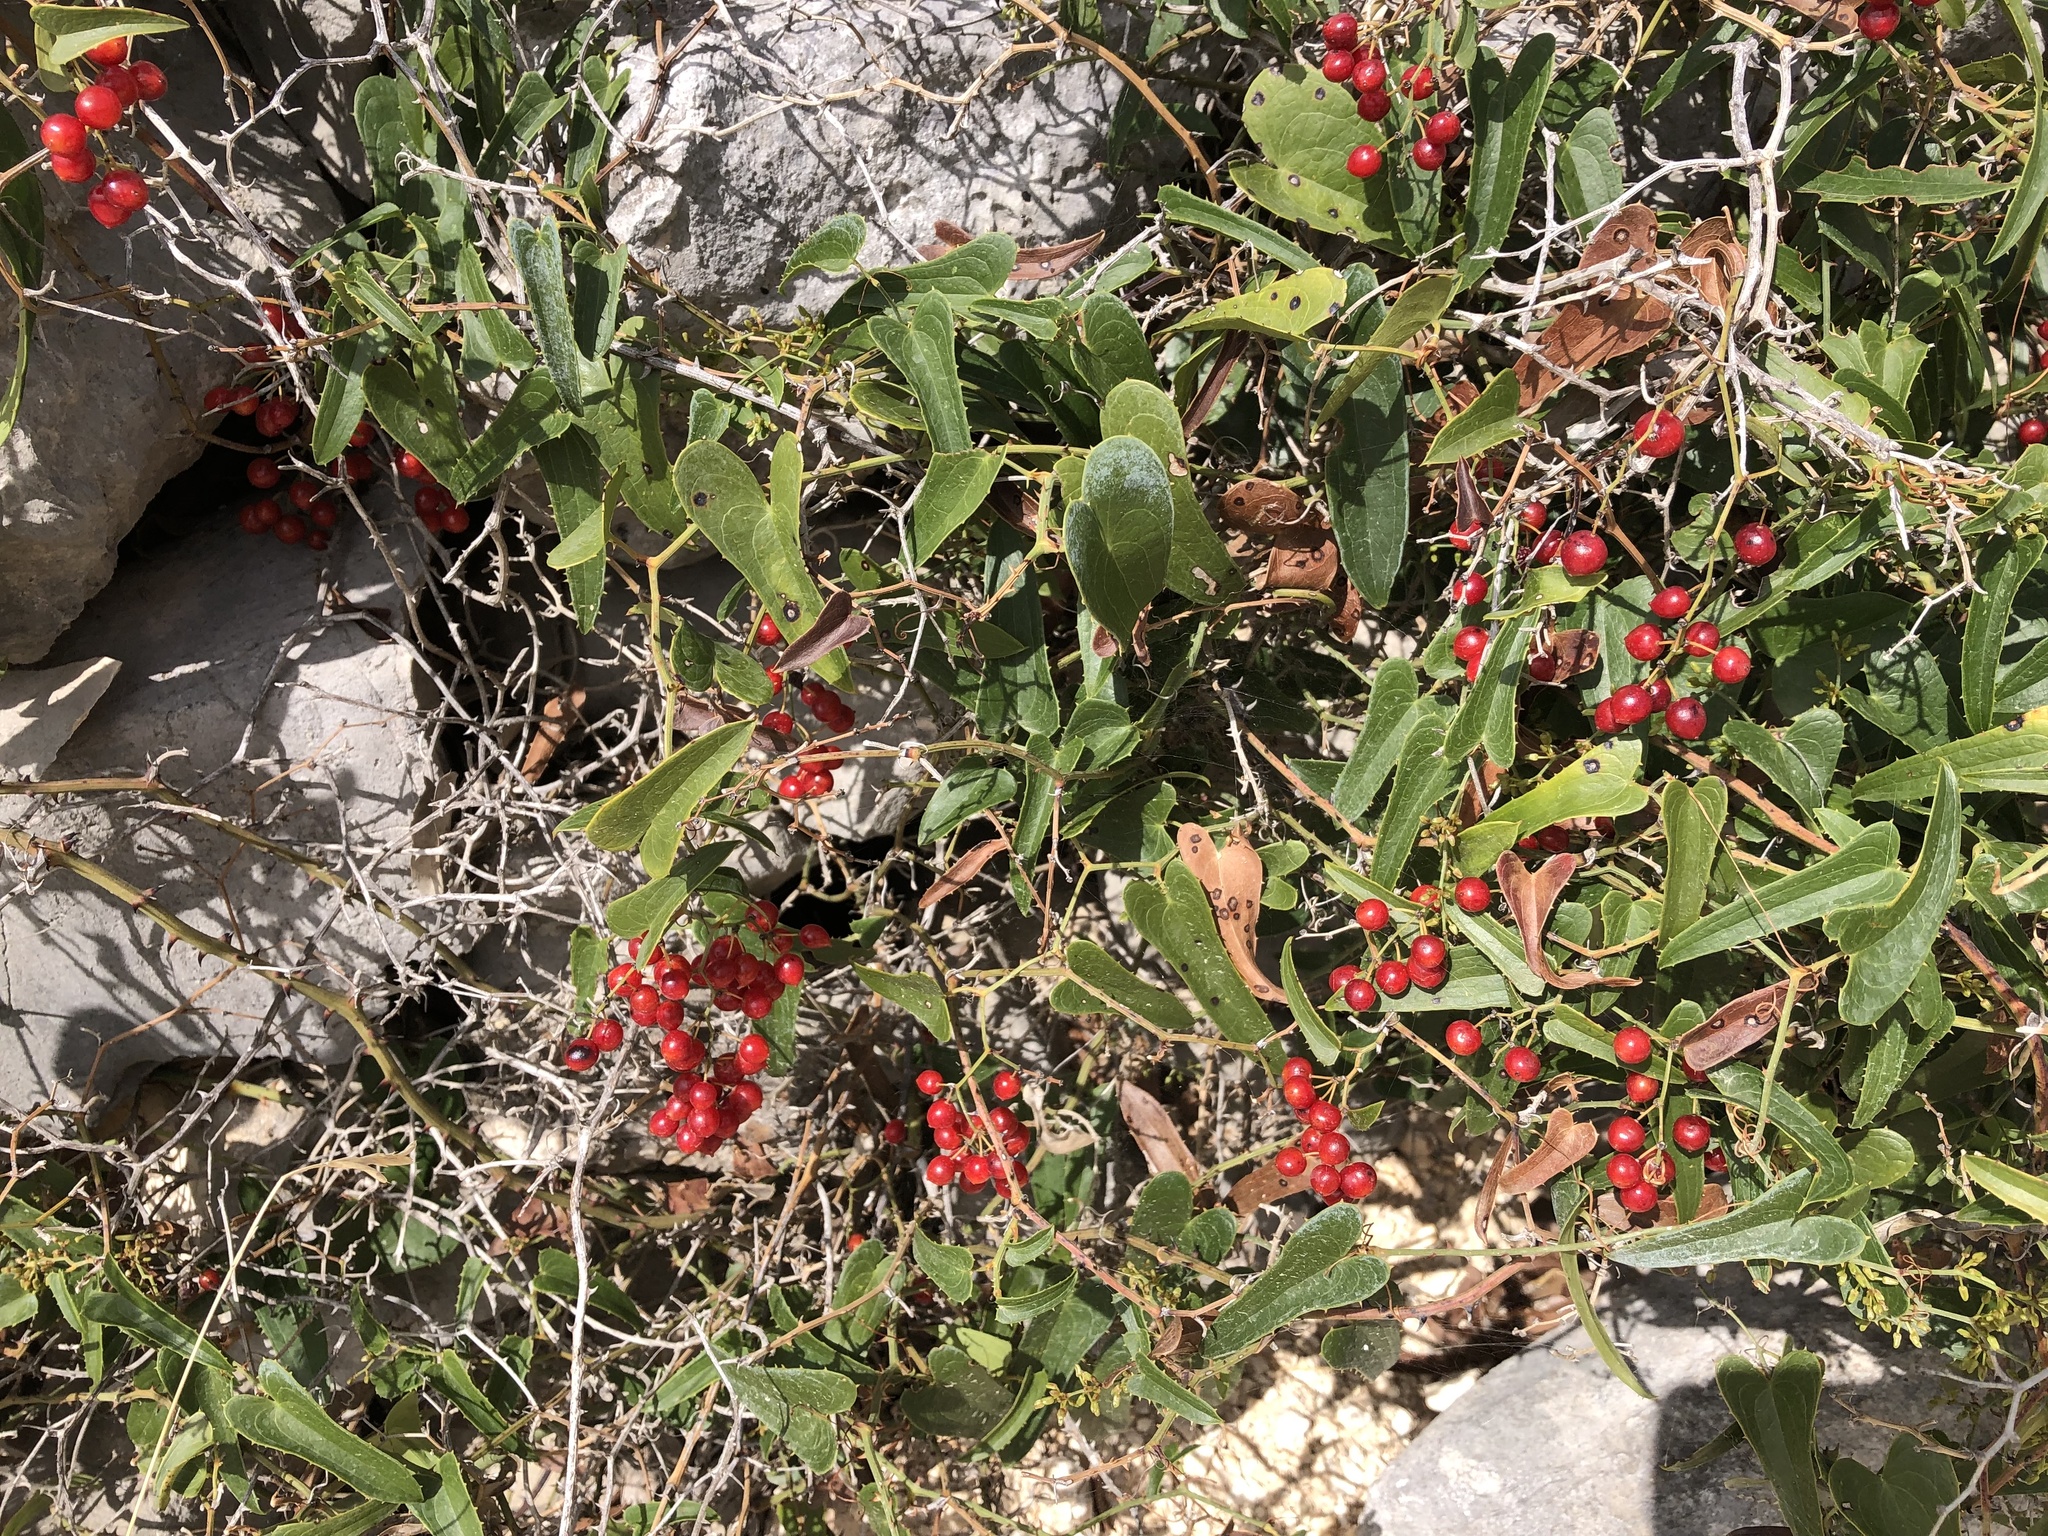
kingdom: Plantae
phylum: Tracheophyta
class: Liliopsida
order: Liliales
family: Smilacaceae
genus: Smilax
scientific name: Smilax aspera
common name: Common smilax
